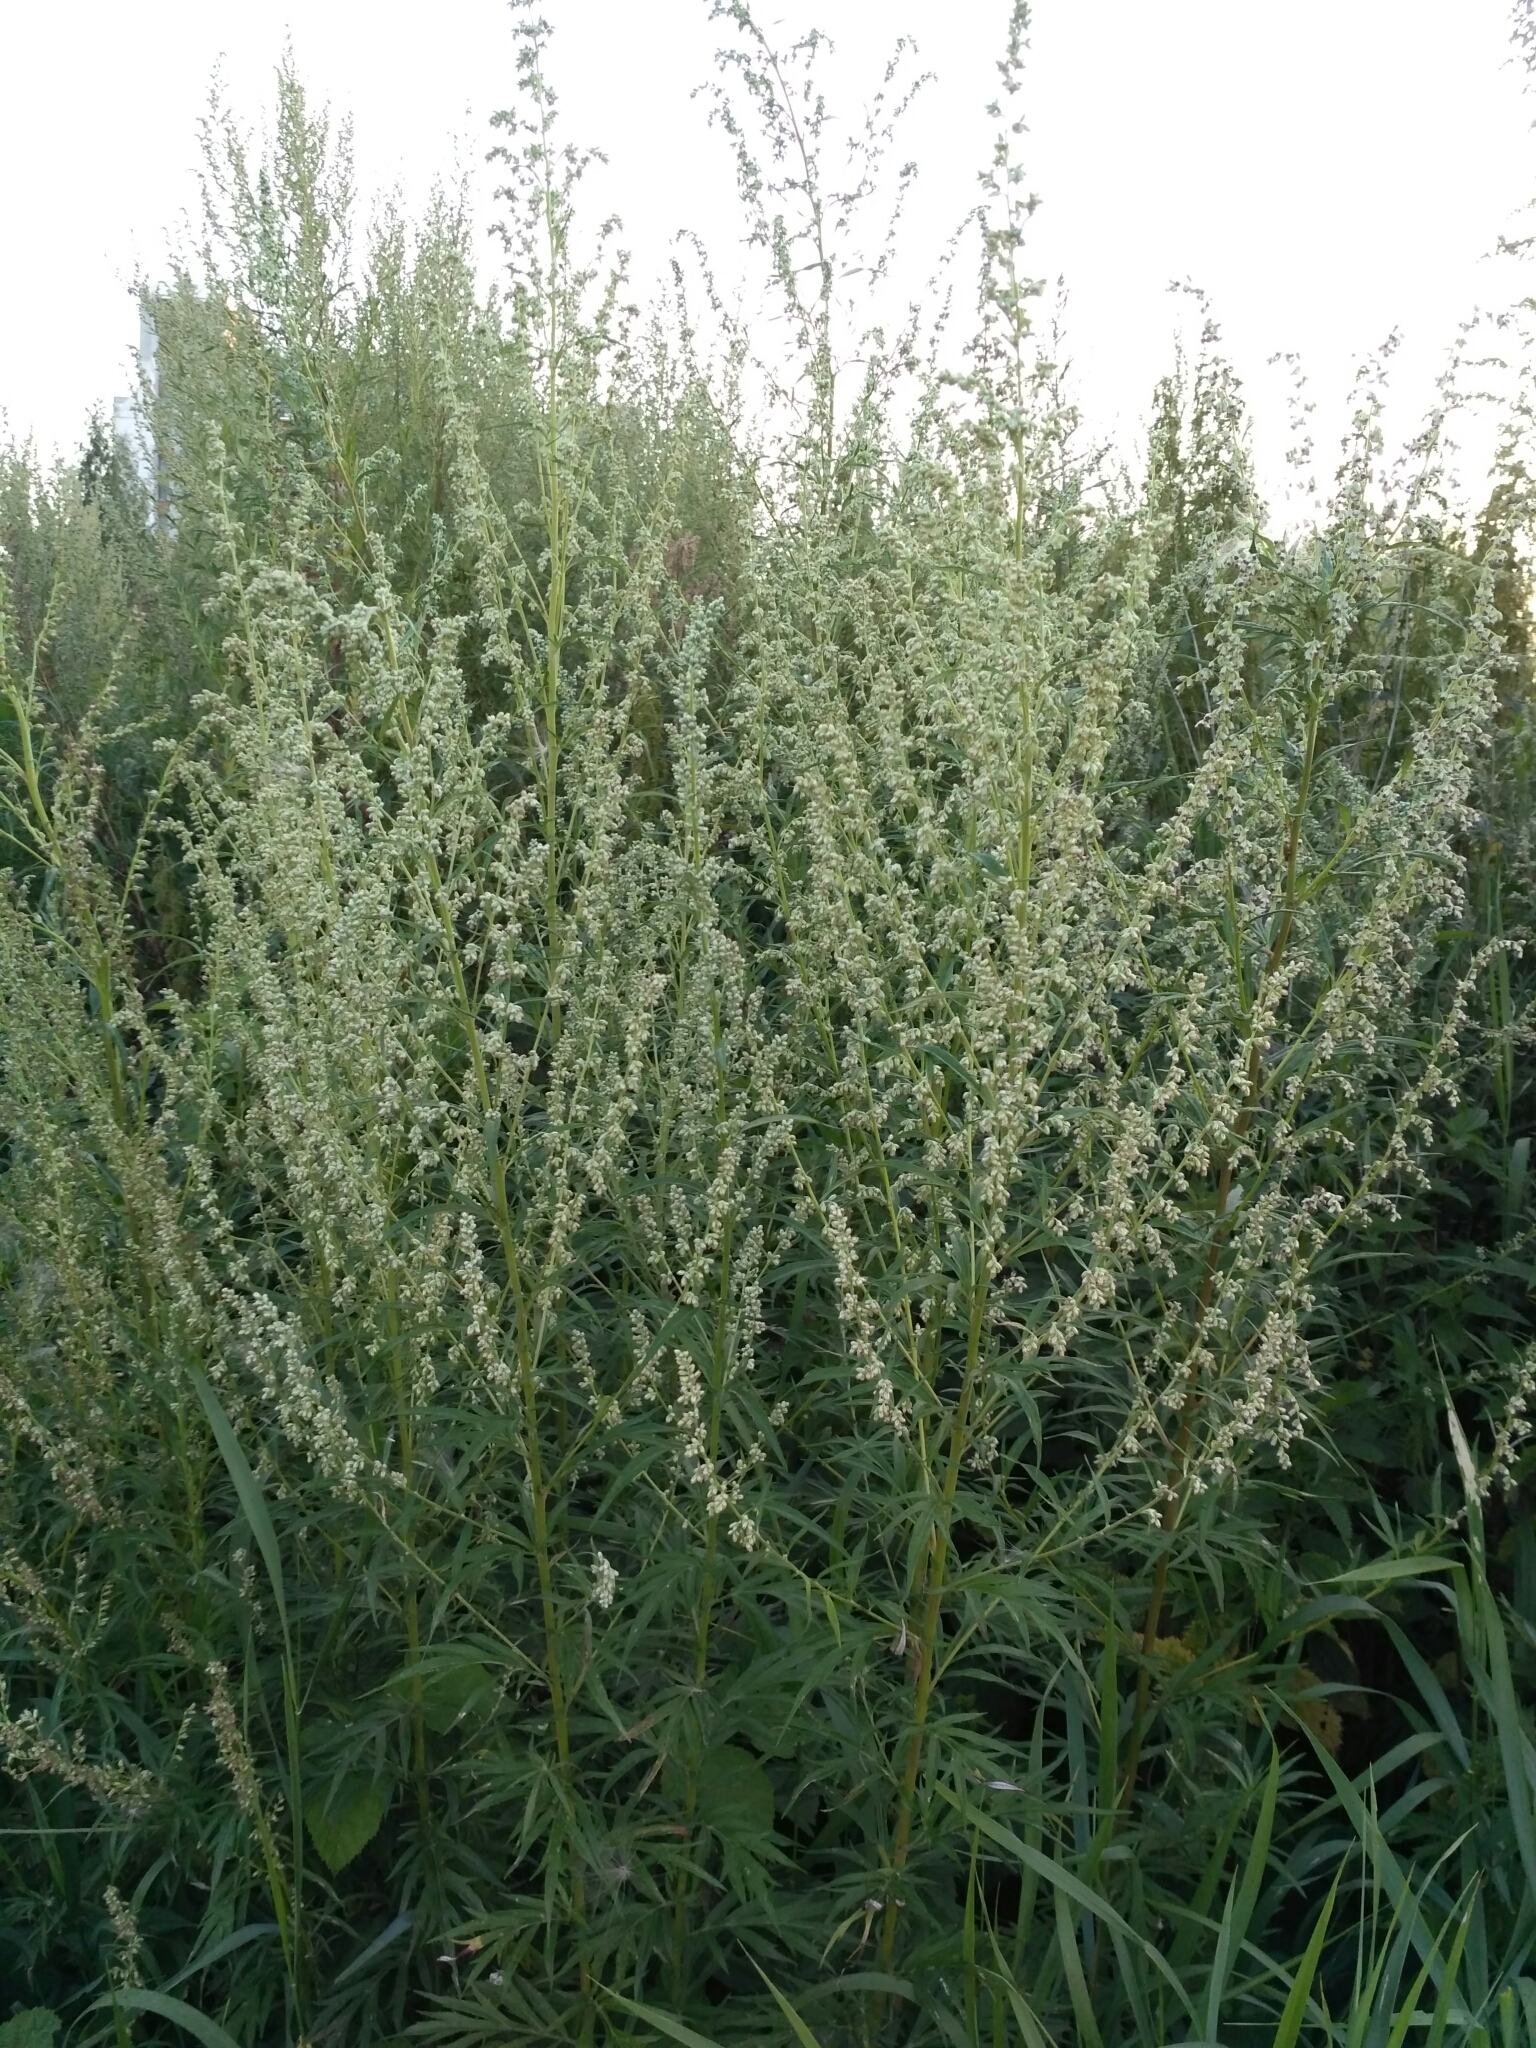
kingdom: Plantae
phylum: Tracheophyta
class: Magnoliopsida
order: Asterales
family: Asteraceae
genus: Artemisia
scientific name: Artemisia vulgaris
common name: Mugwort
